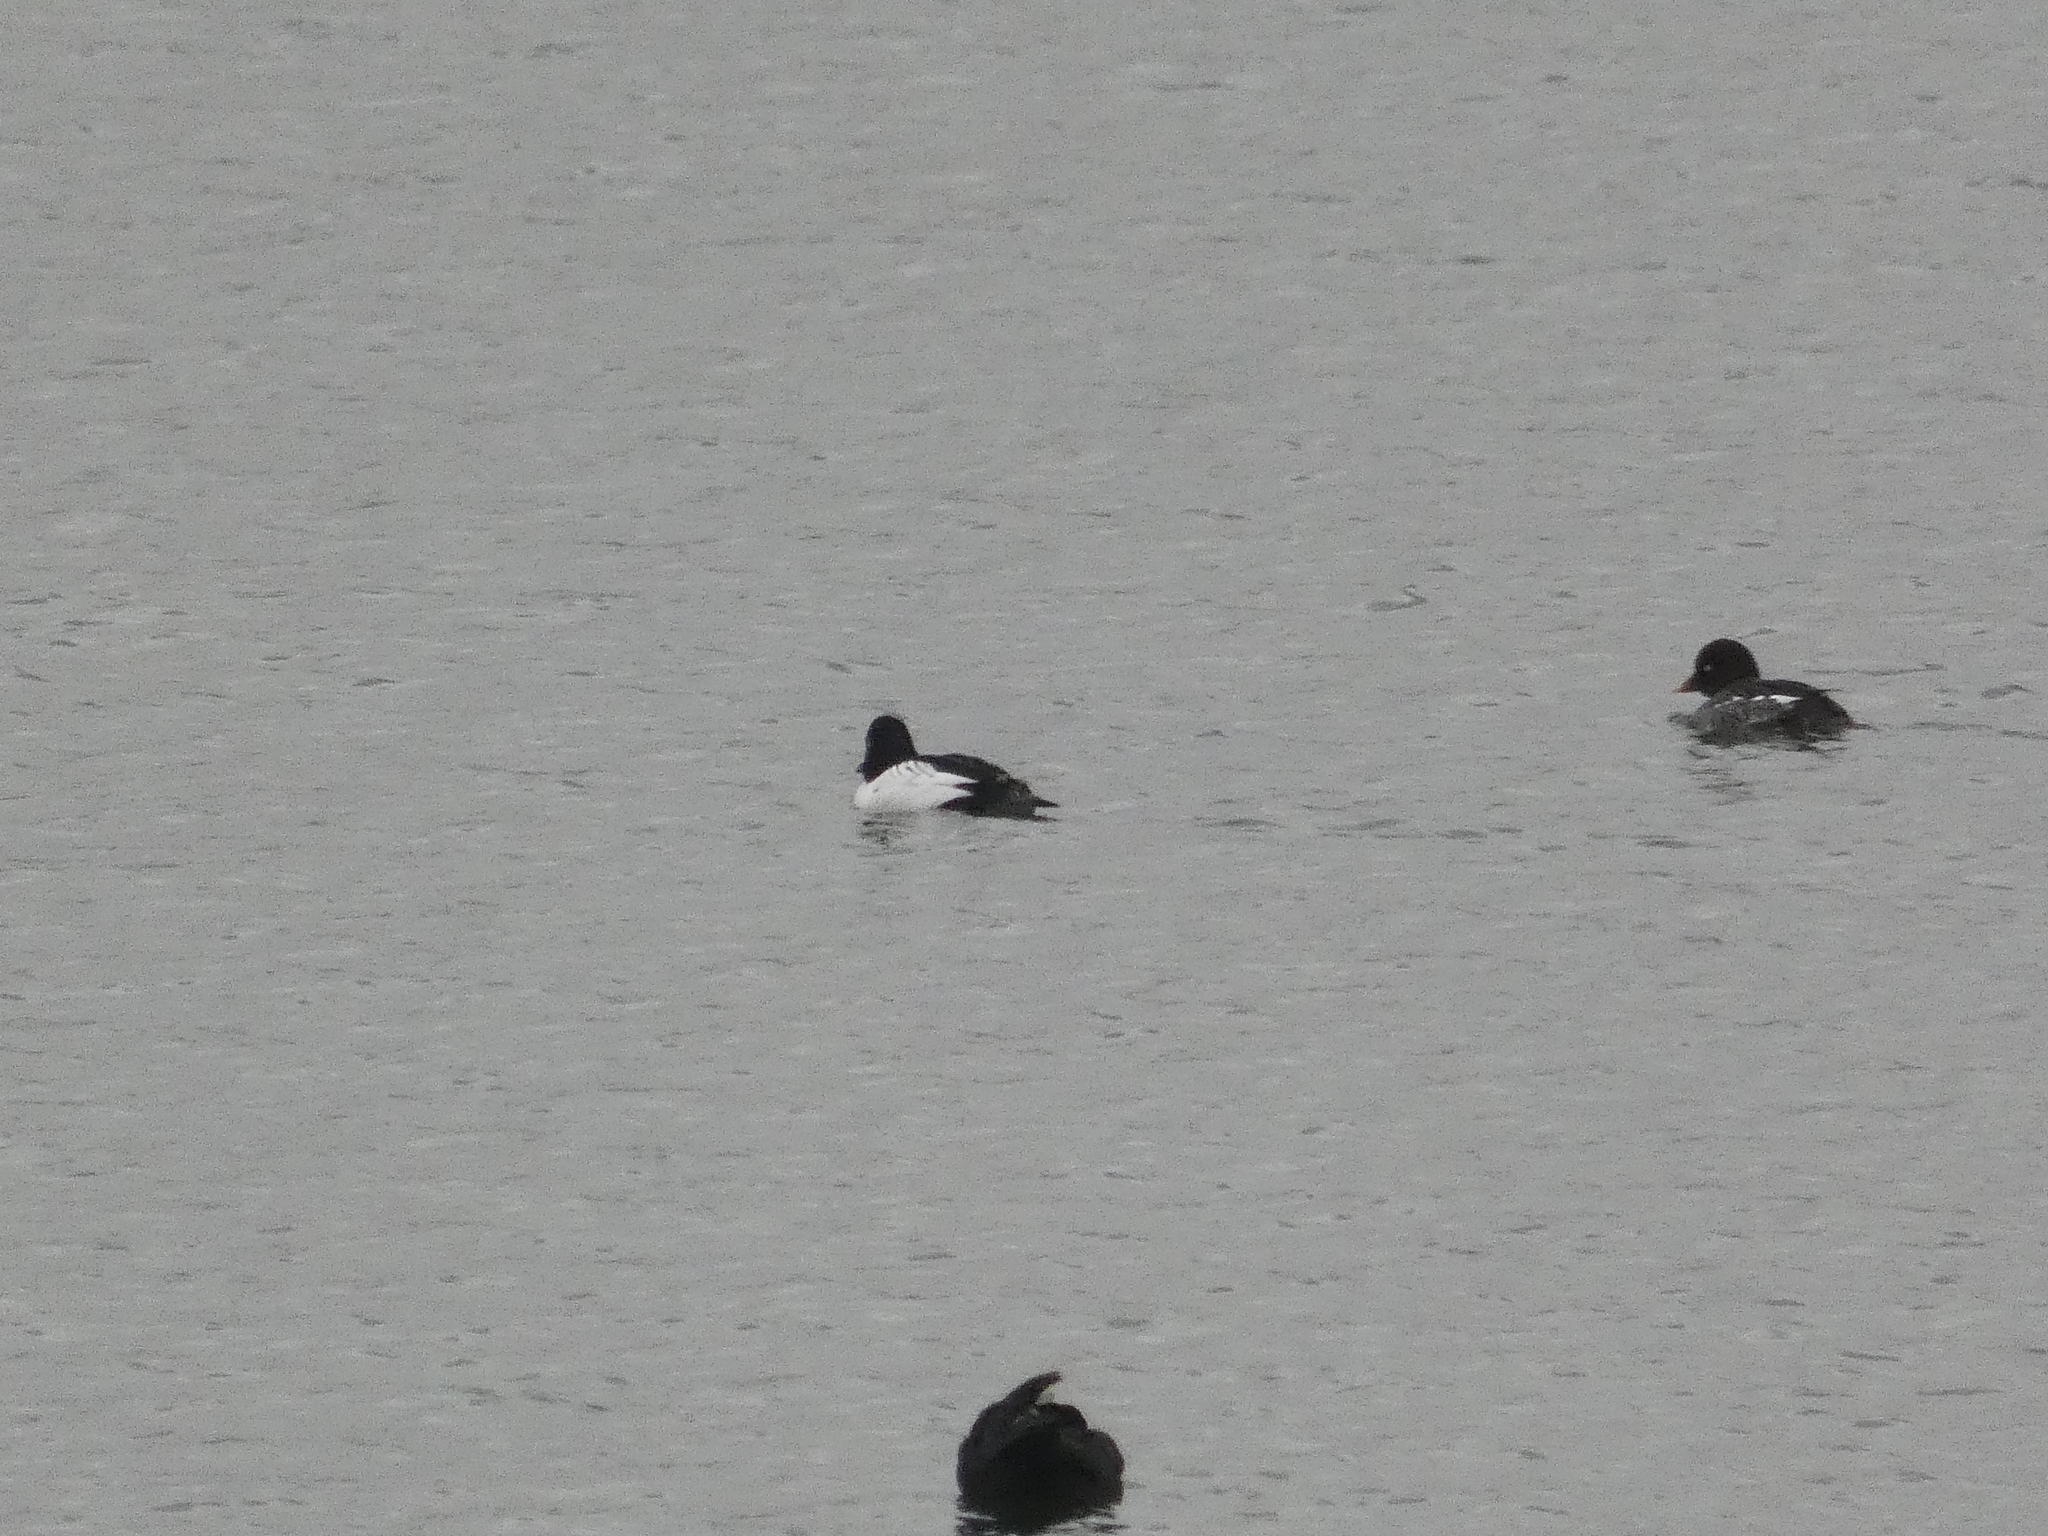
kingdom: Animalia
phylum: Chordata
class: Aves
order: Anseriformes
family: Anatidae
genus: Bucephala
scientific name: Bucephala clangula
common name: Common goldeneye
